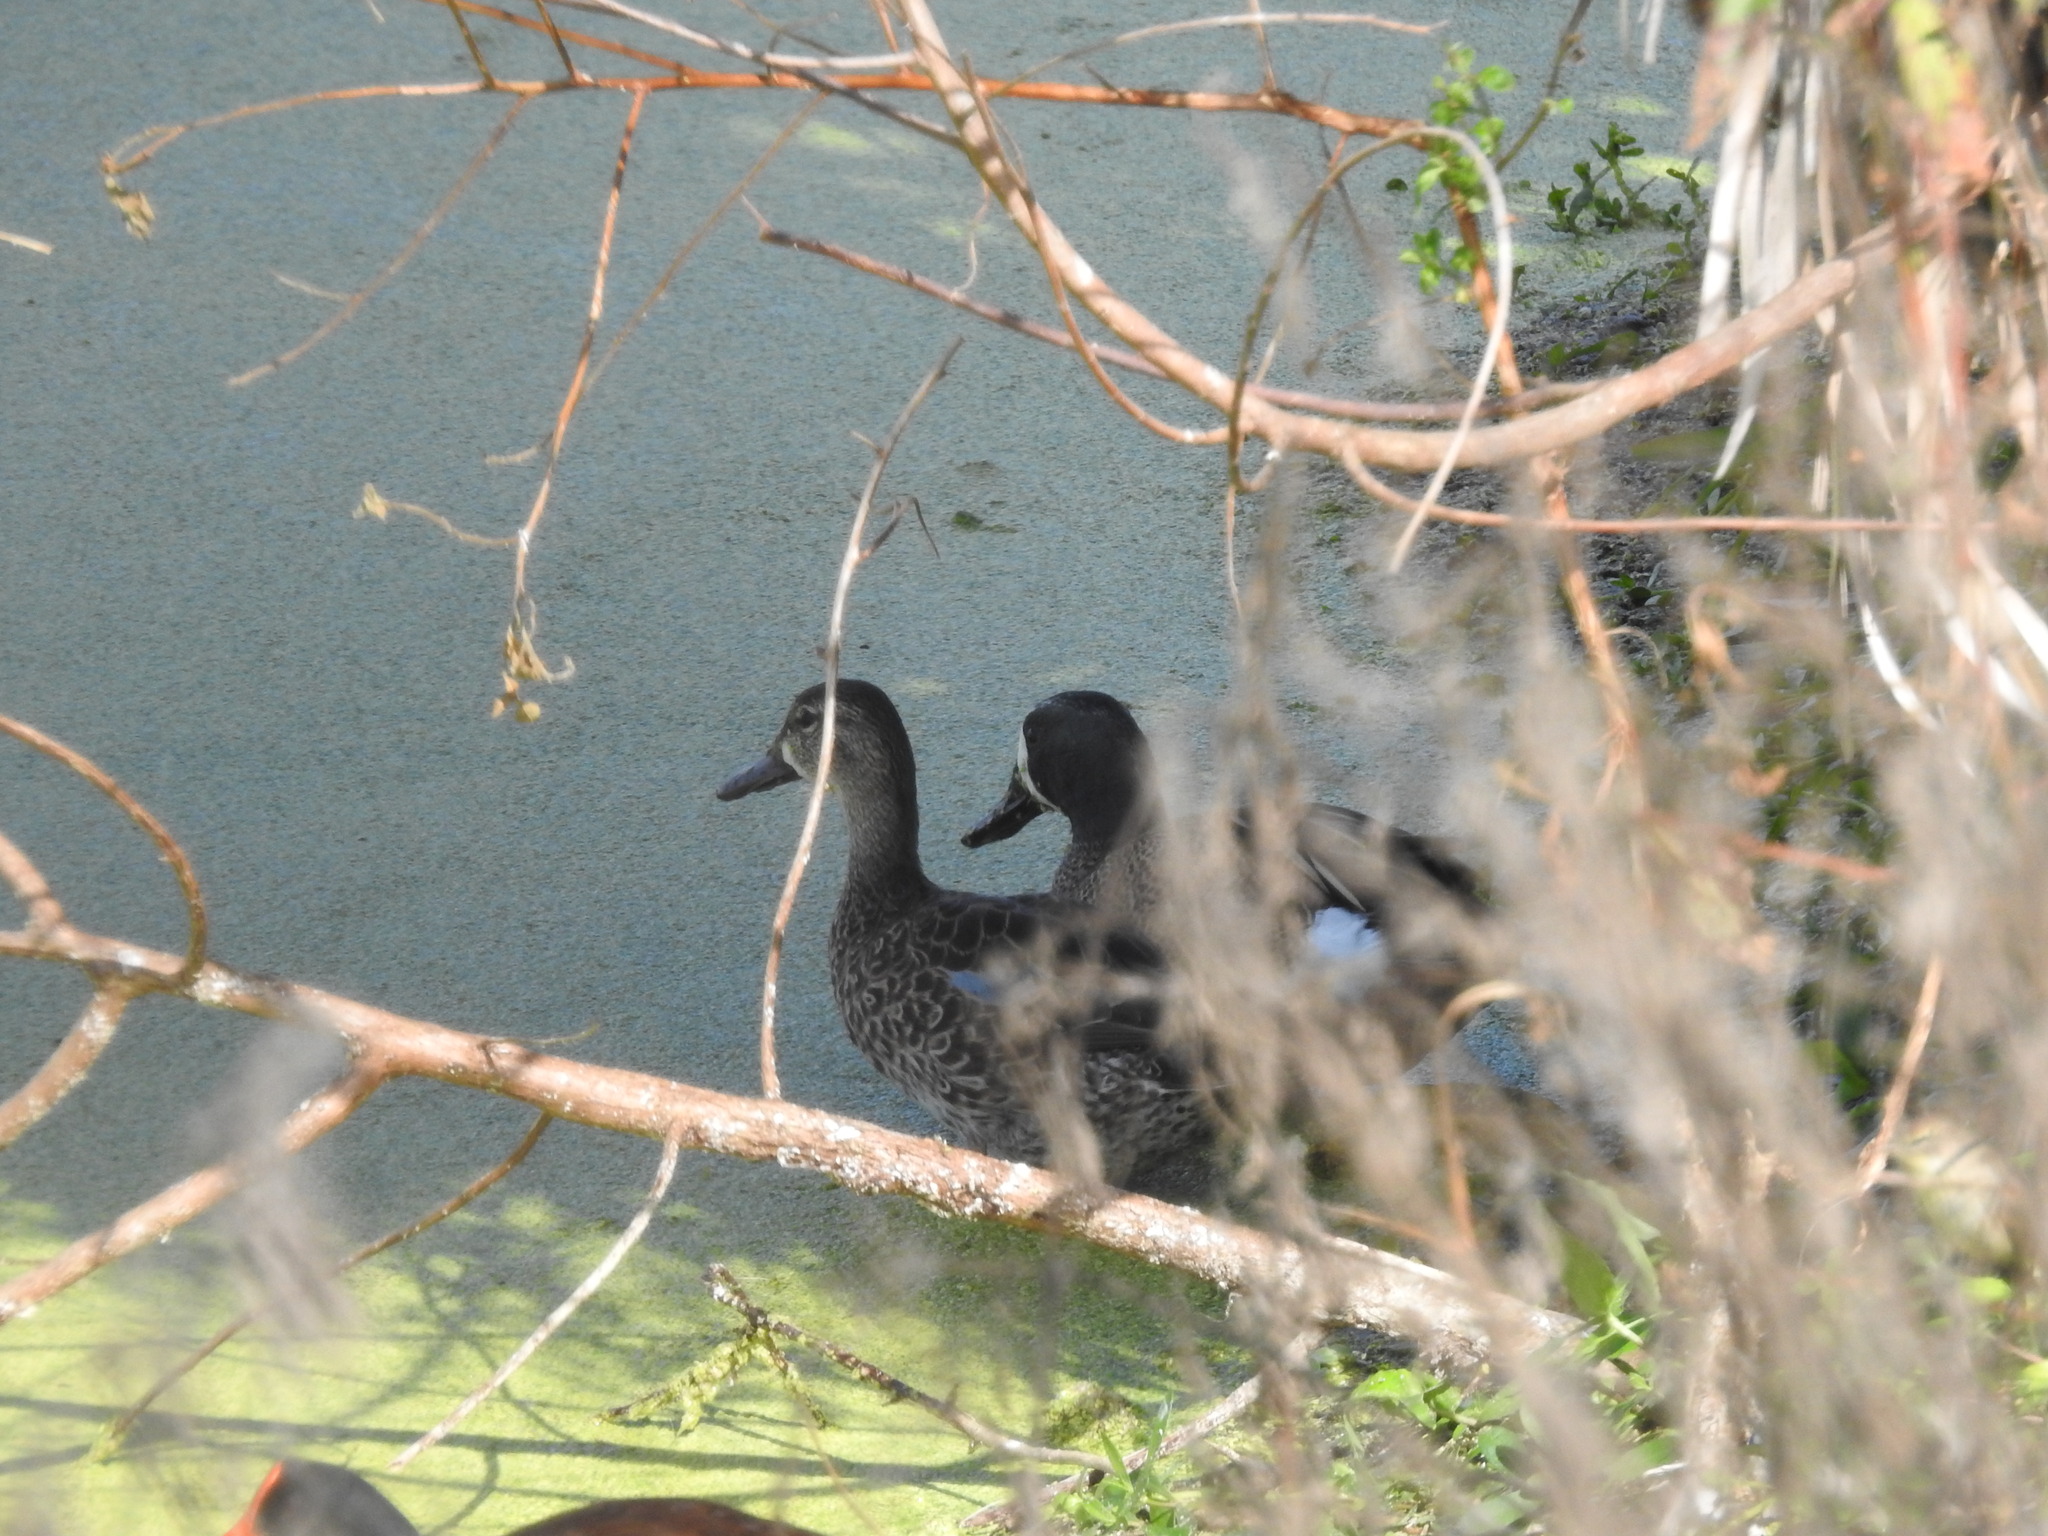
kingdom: Animalia
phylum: Chordata
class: Aves
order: Anseriformes
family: Anatidae
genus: Spatula
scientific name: Spatula discors
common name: Blue-winged teal
